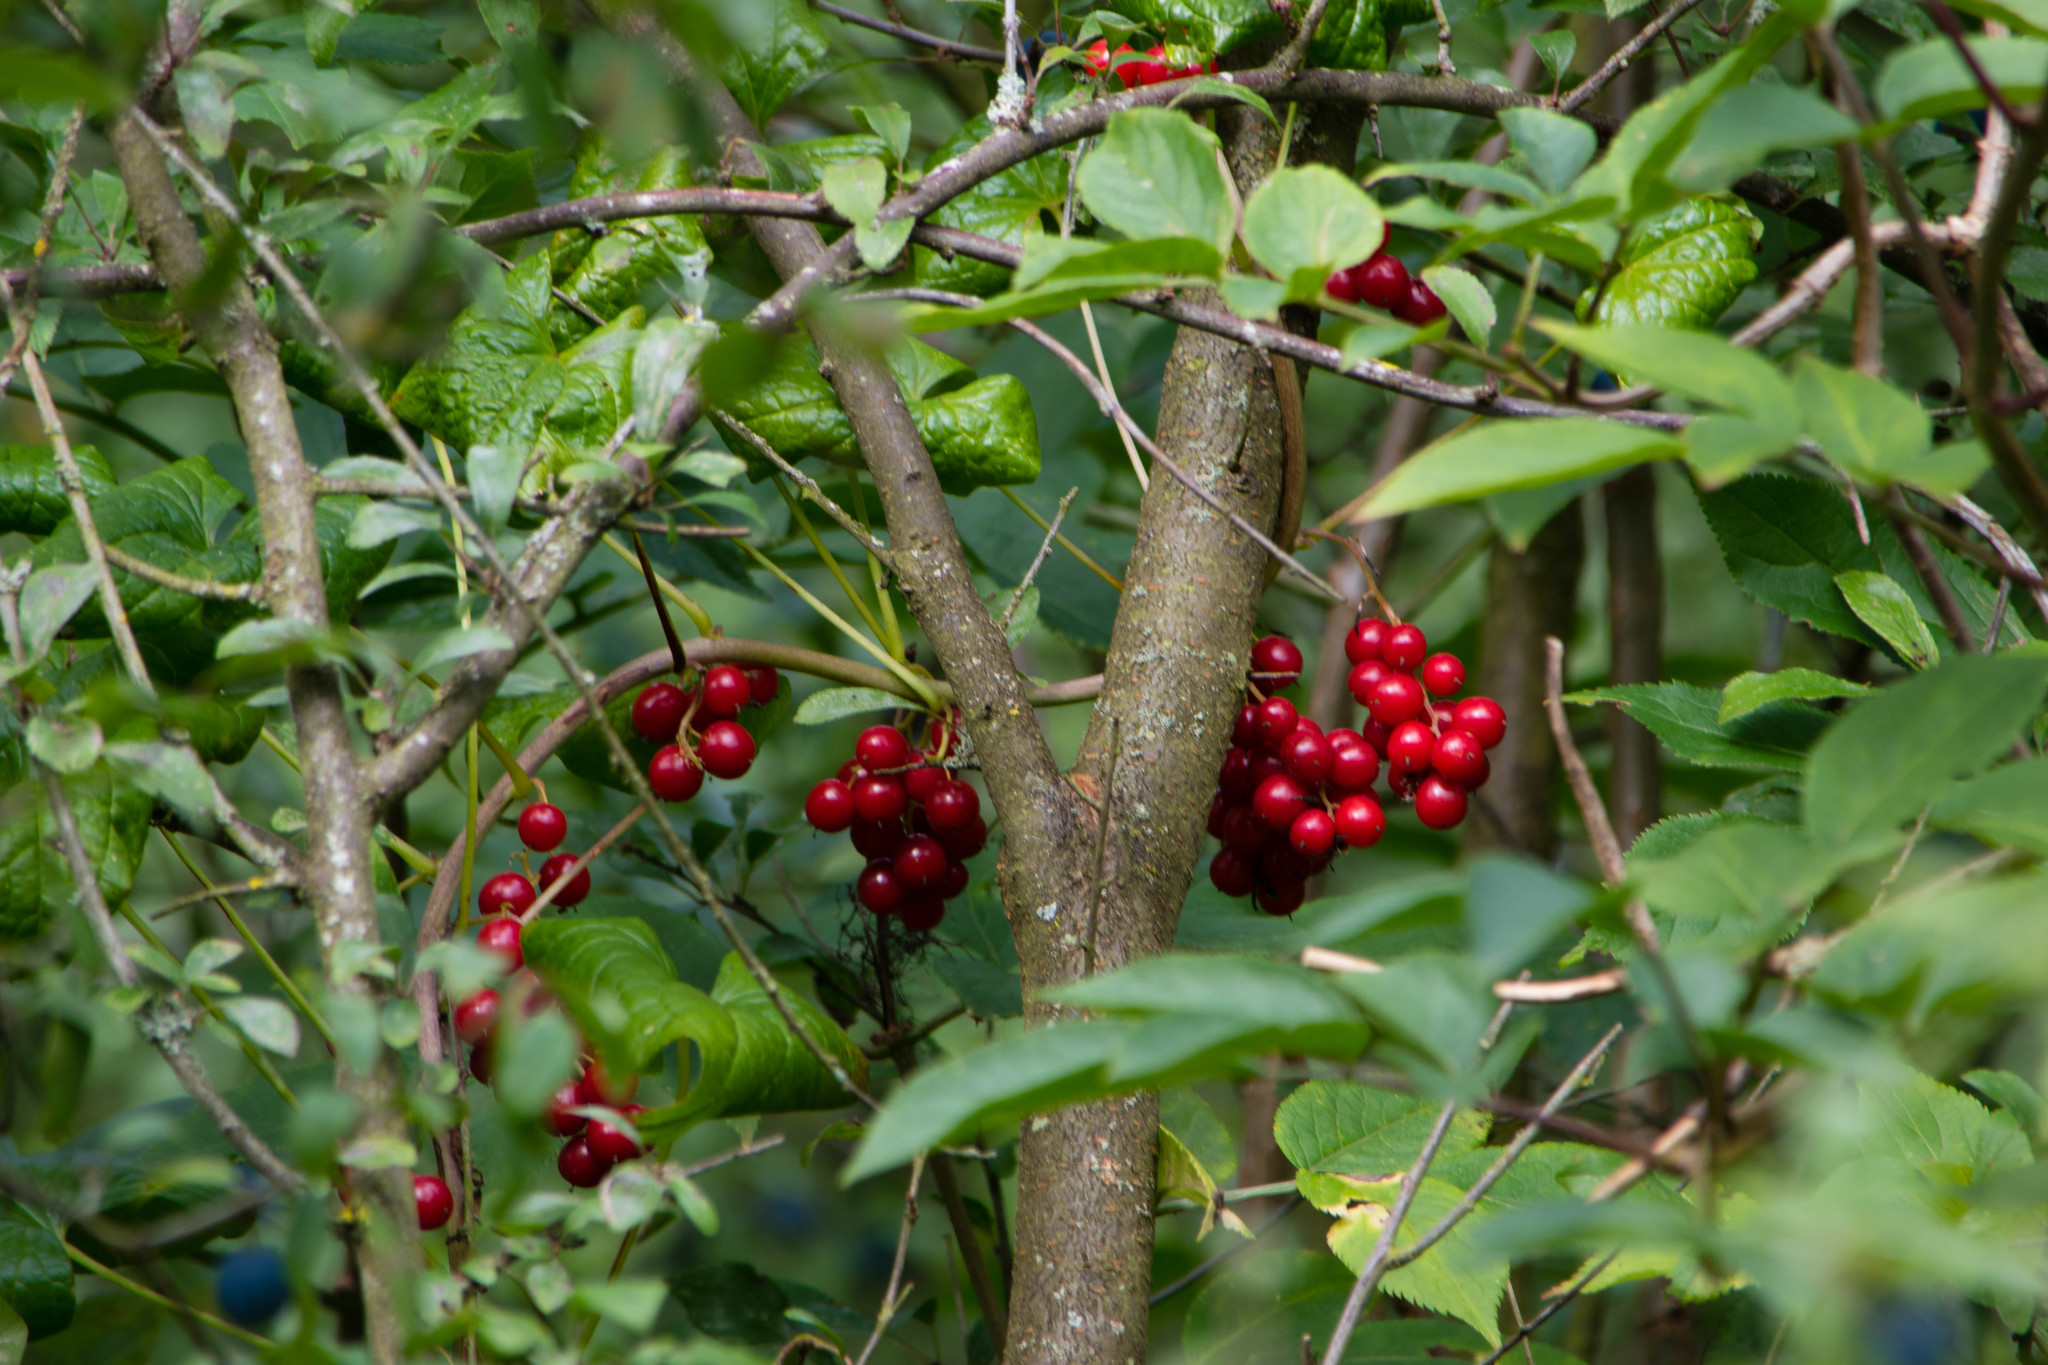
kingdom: Plantae
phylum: Tracheophyta
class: Liliopsida
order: Dioscoreales
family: Dioscoreaceae
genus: Dioscorea
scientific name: Dioscorea communis
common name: Black-bindweed
